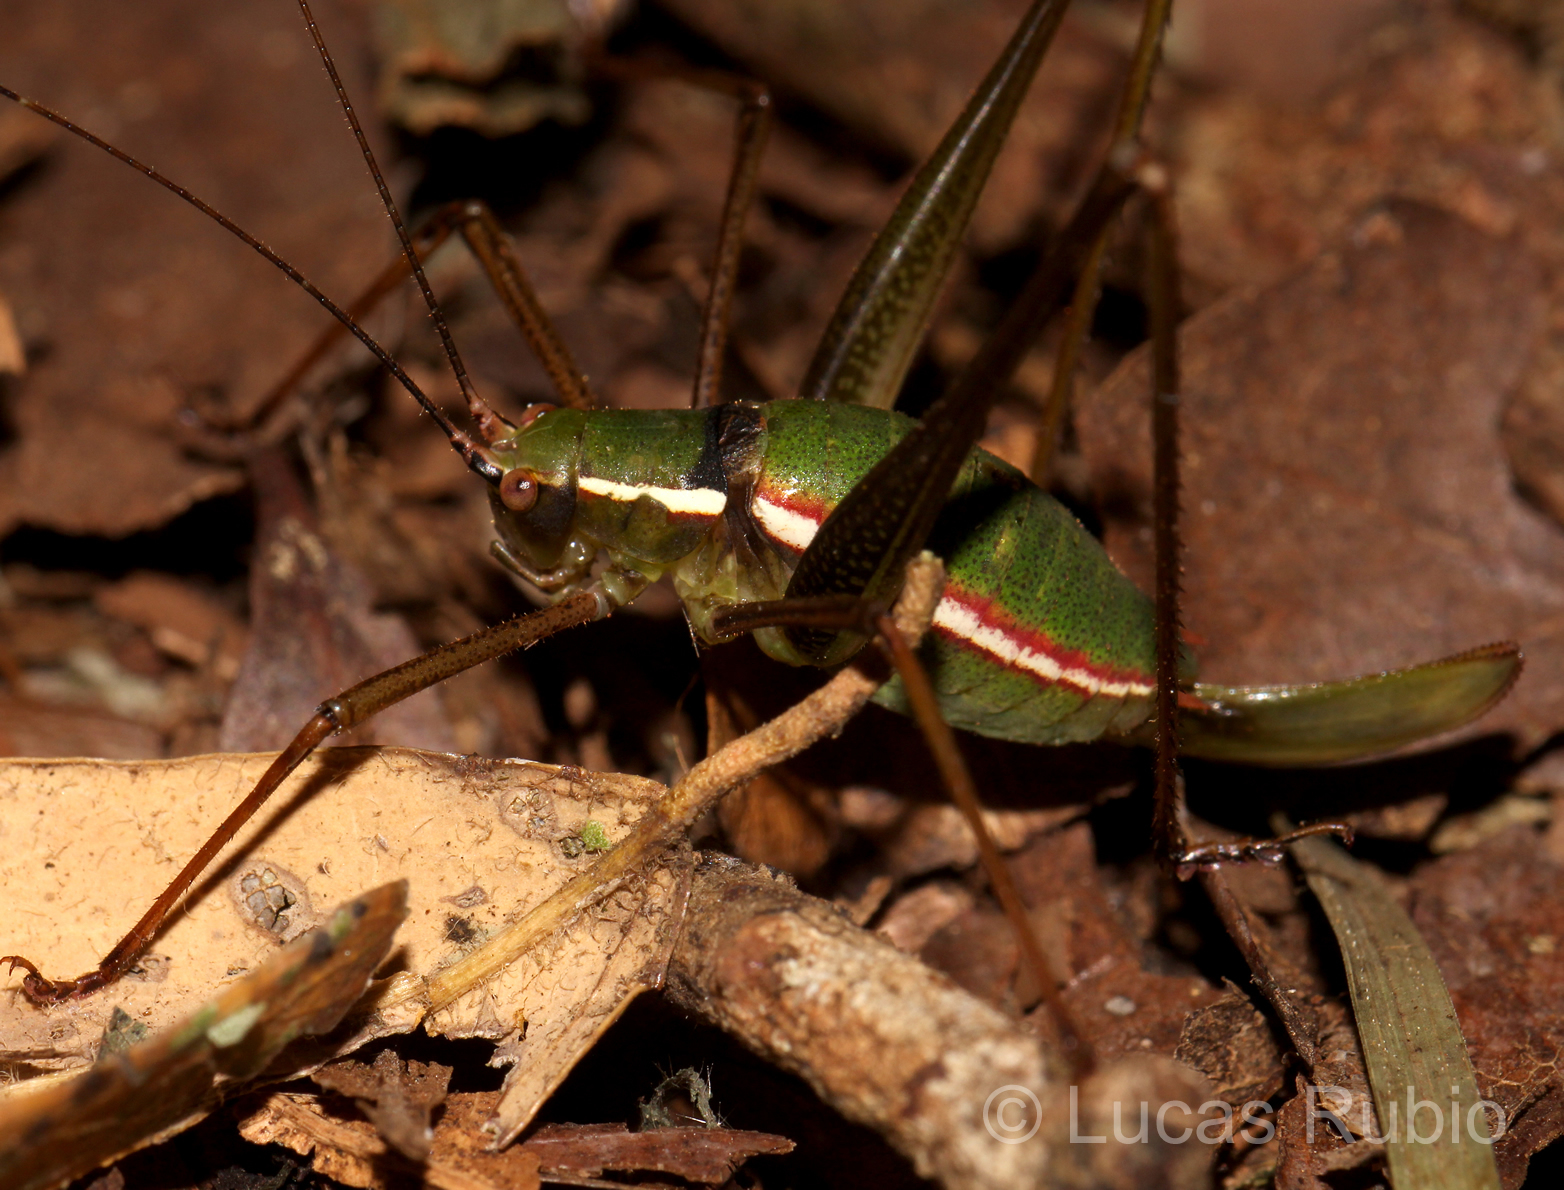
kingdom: Animalia
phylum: Arthropoda
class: Insecta
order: Orthoptera
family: Tettigoniidae
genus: Xenicola
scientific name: Xenicola xukrixi
